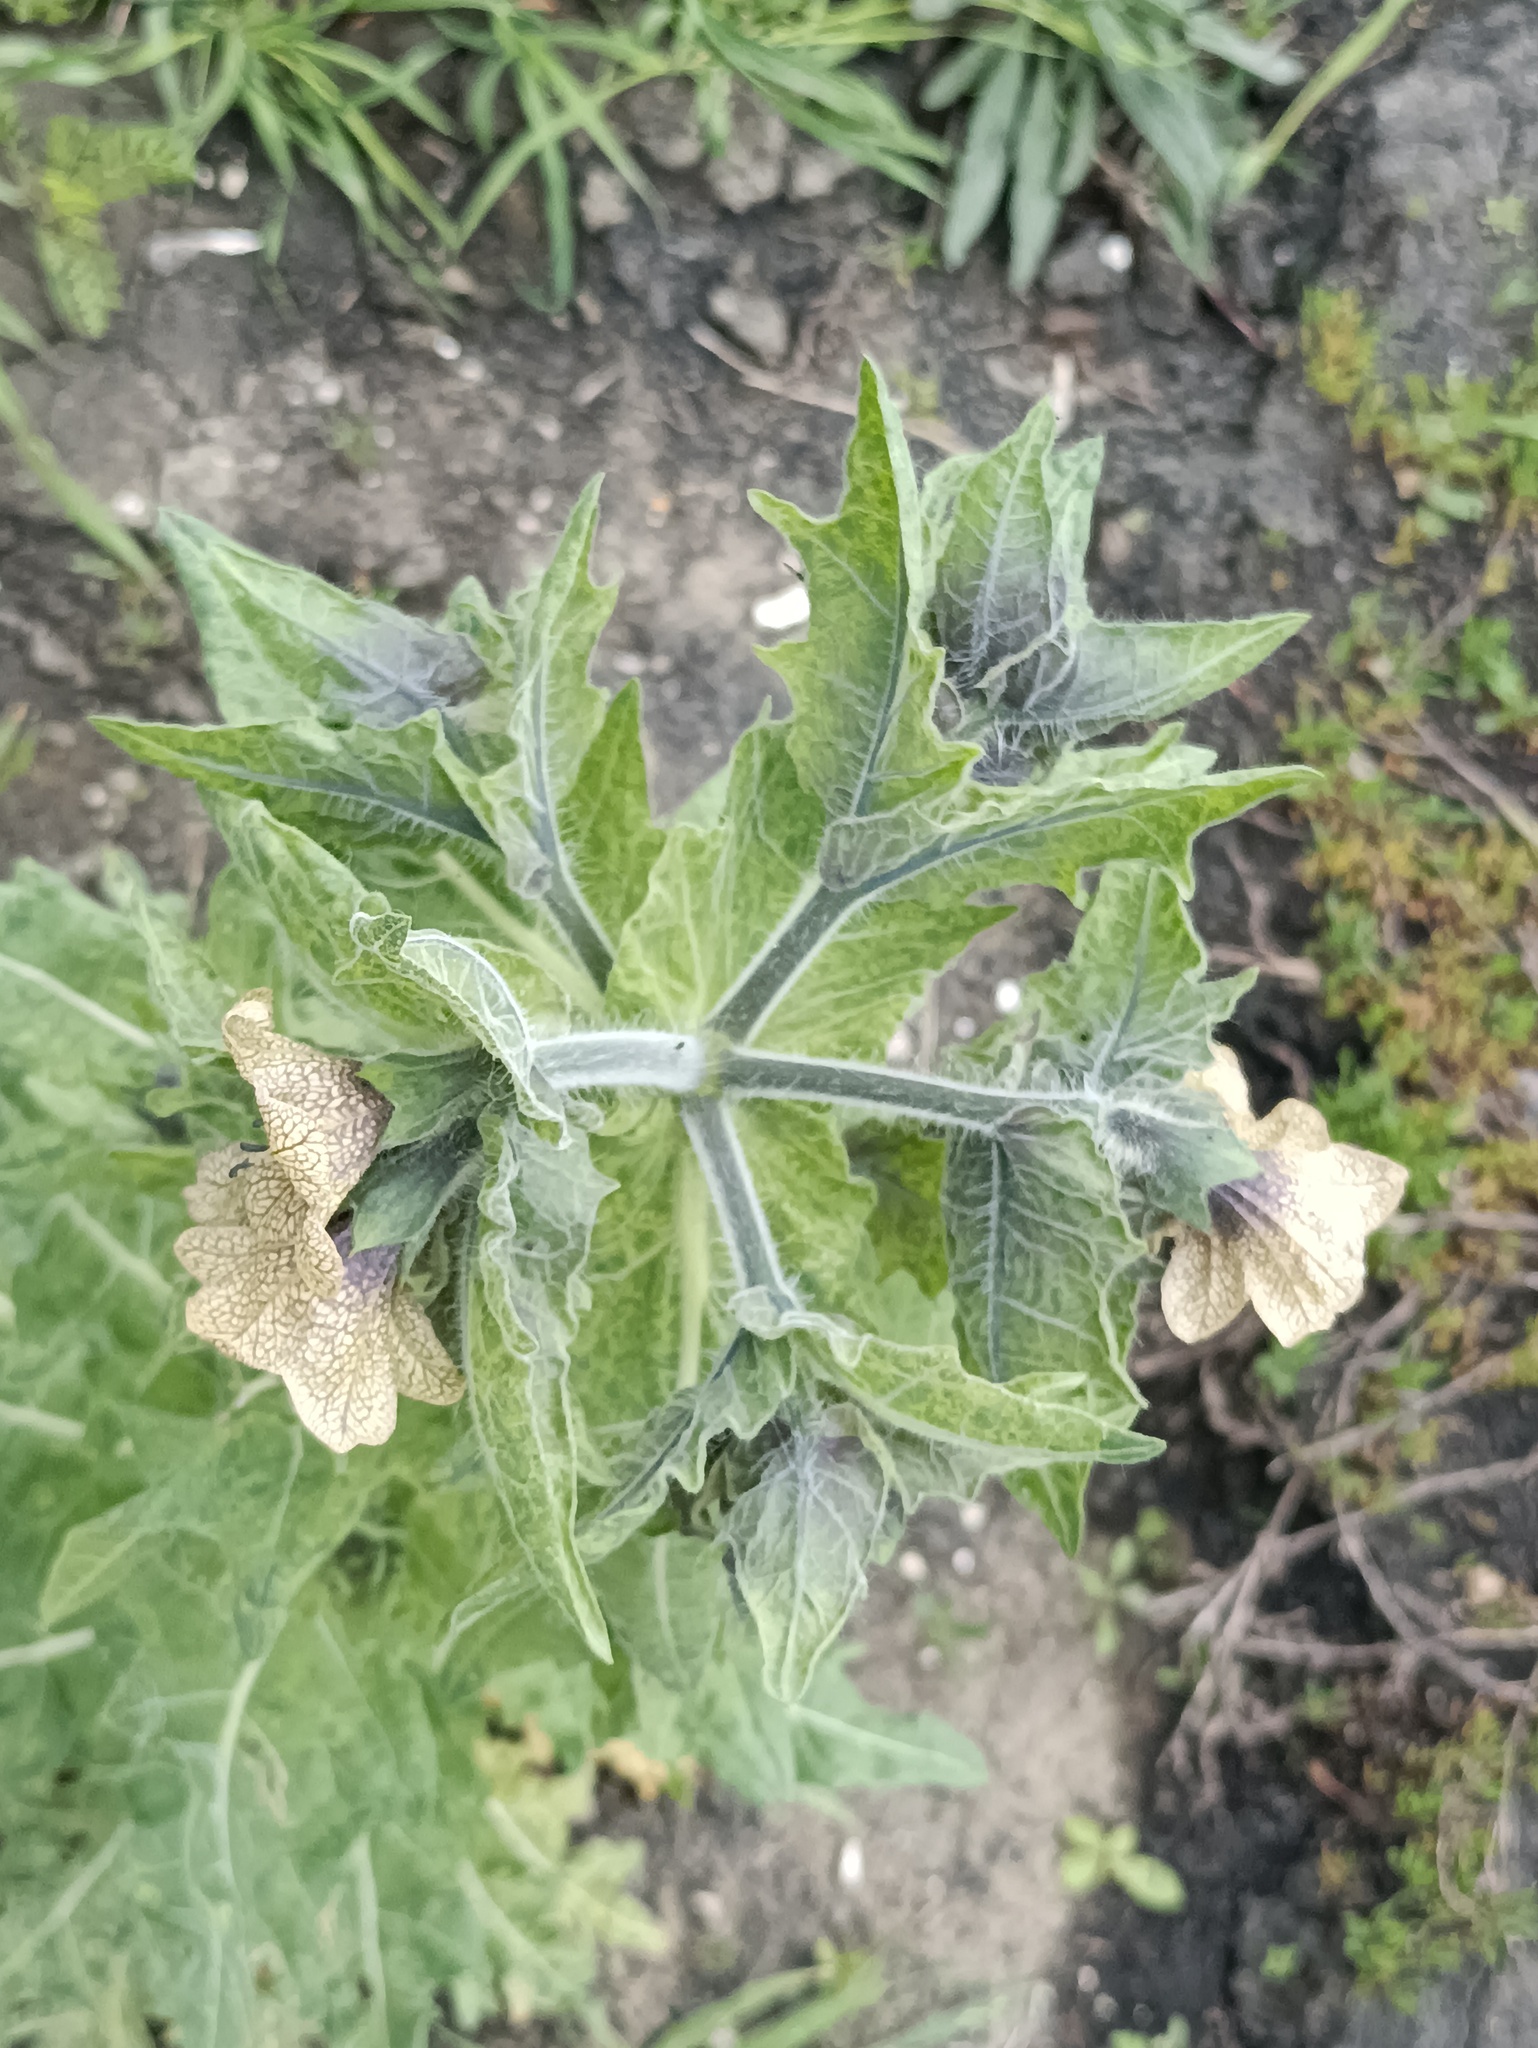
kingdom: Plantae
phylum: Tracheophyta
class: Magnoliopsida
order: Solanales
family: Solanaceae
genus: Hyoscyamus
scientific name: Hyoscyamus niger
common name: Henbane
